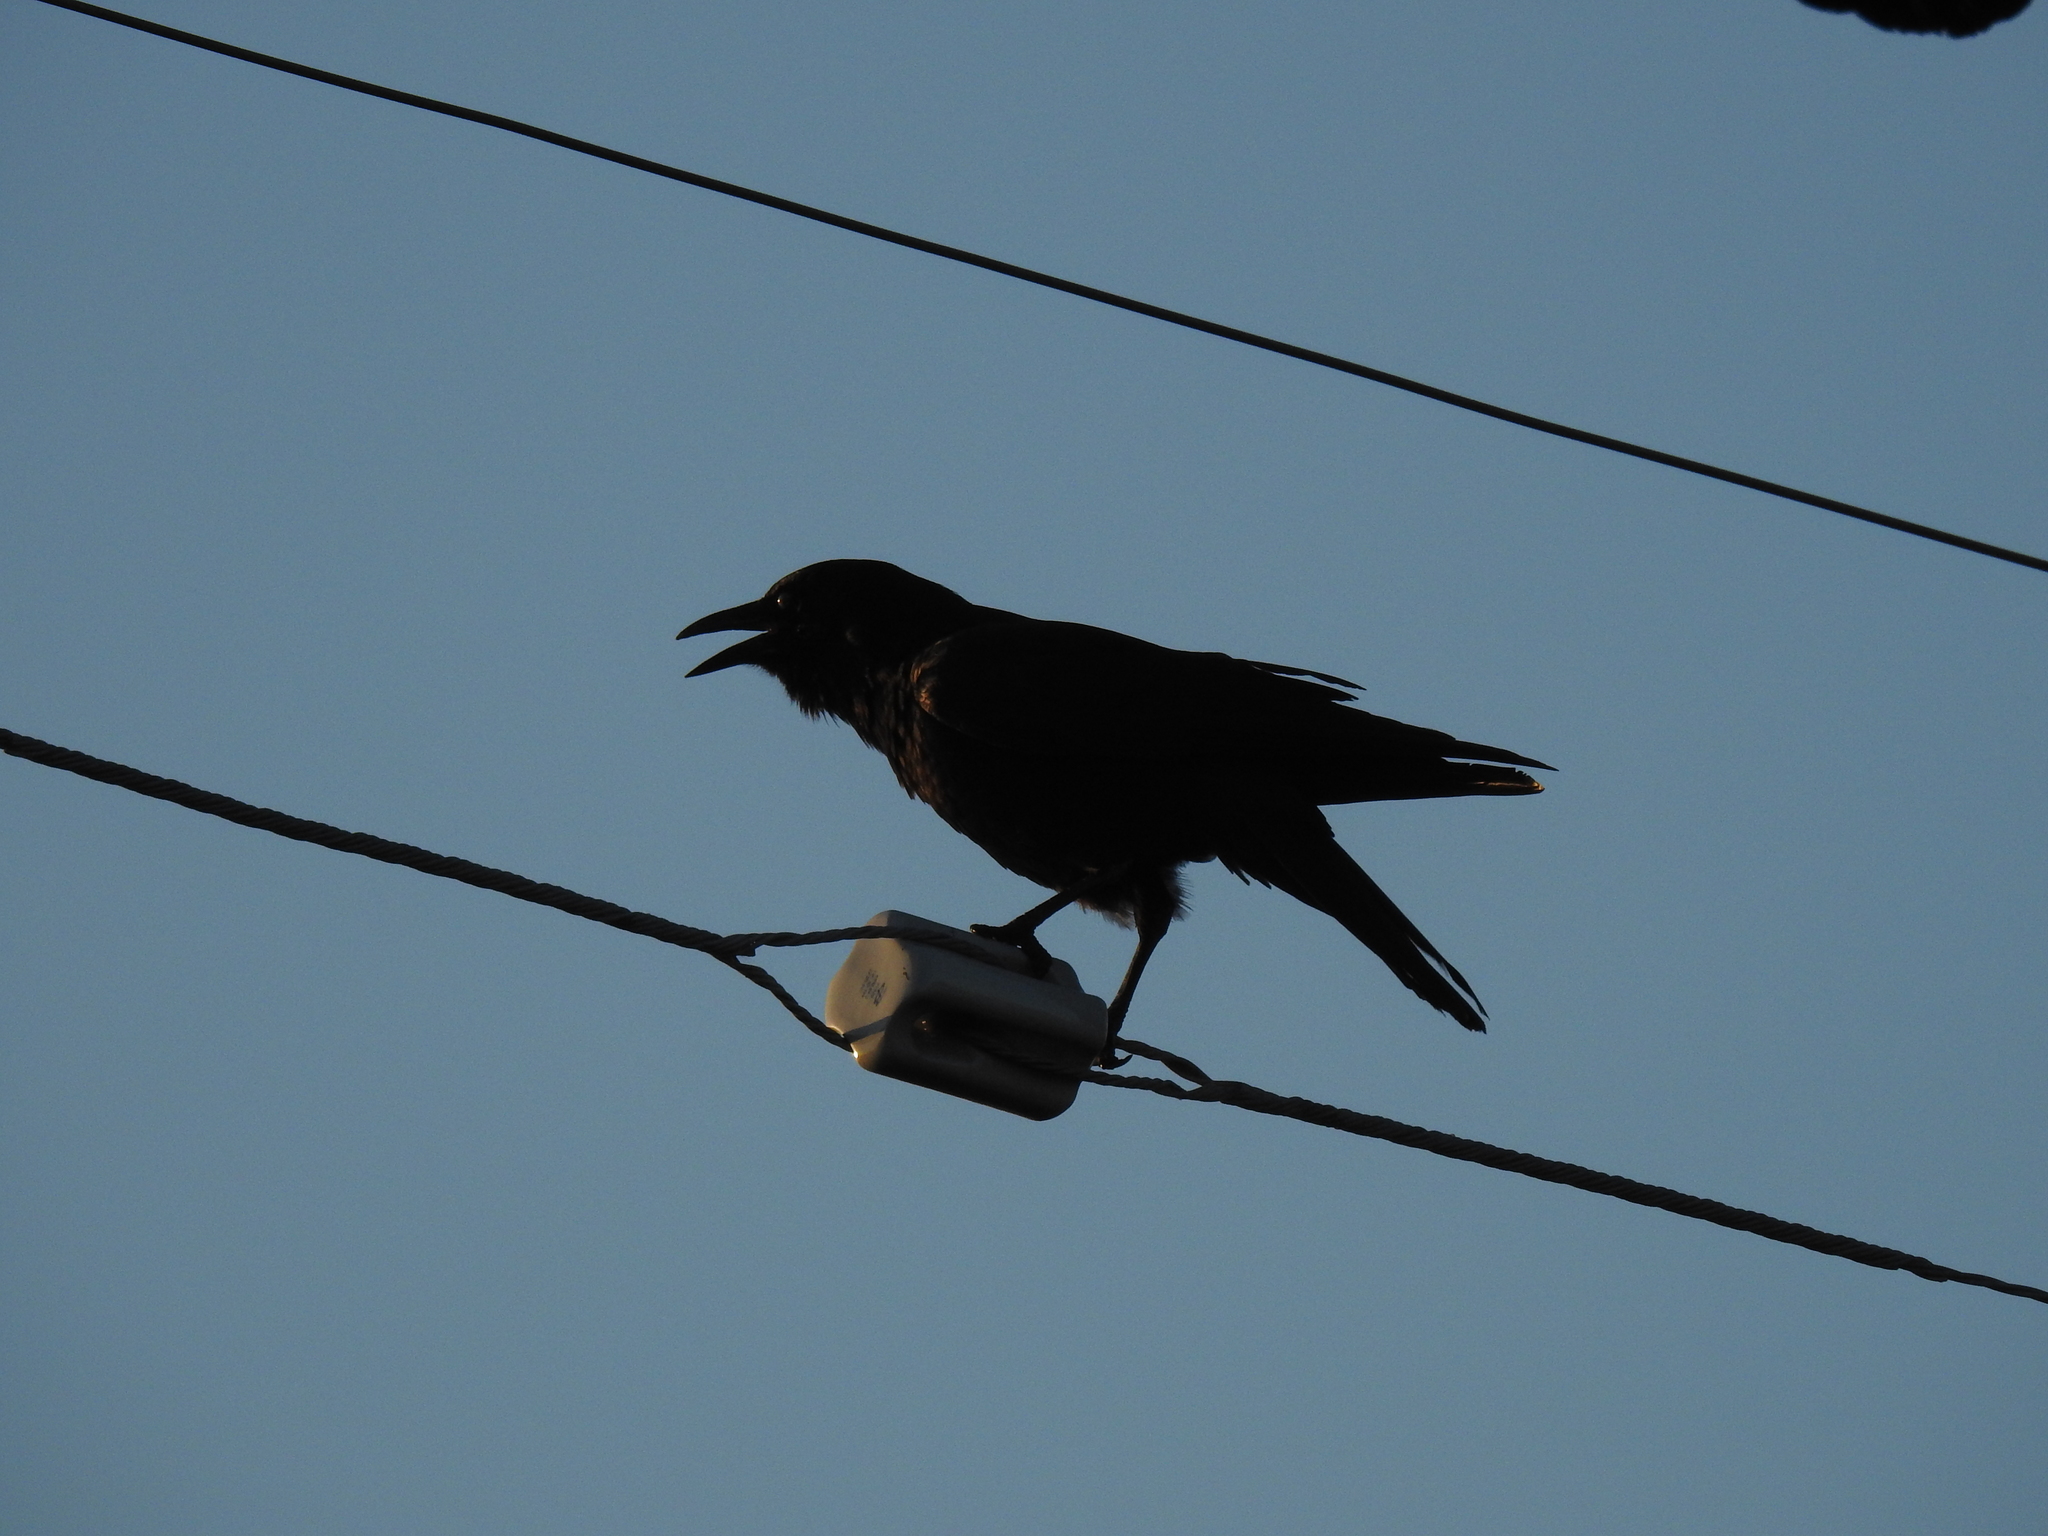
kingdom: Animalia
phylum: Chordata
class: Aves
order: Passeriformes
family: Corvidae
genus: Corvus
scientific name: Corvus brachyrhynchos
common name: American crow
